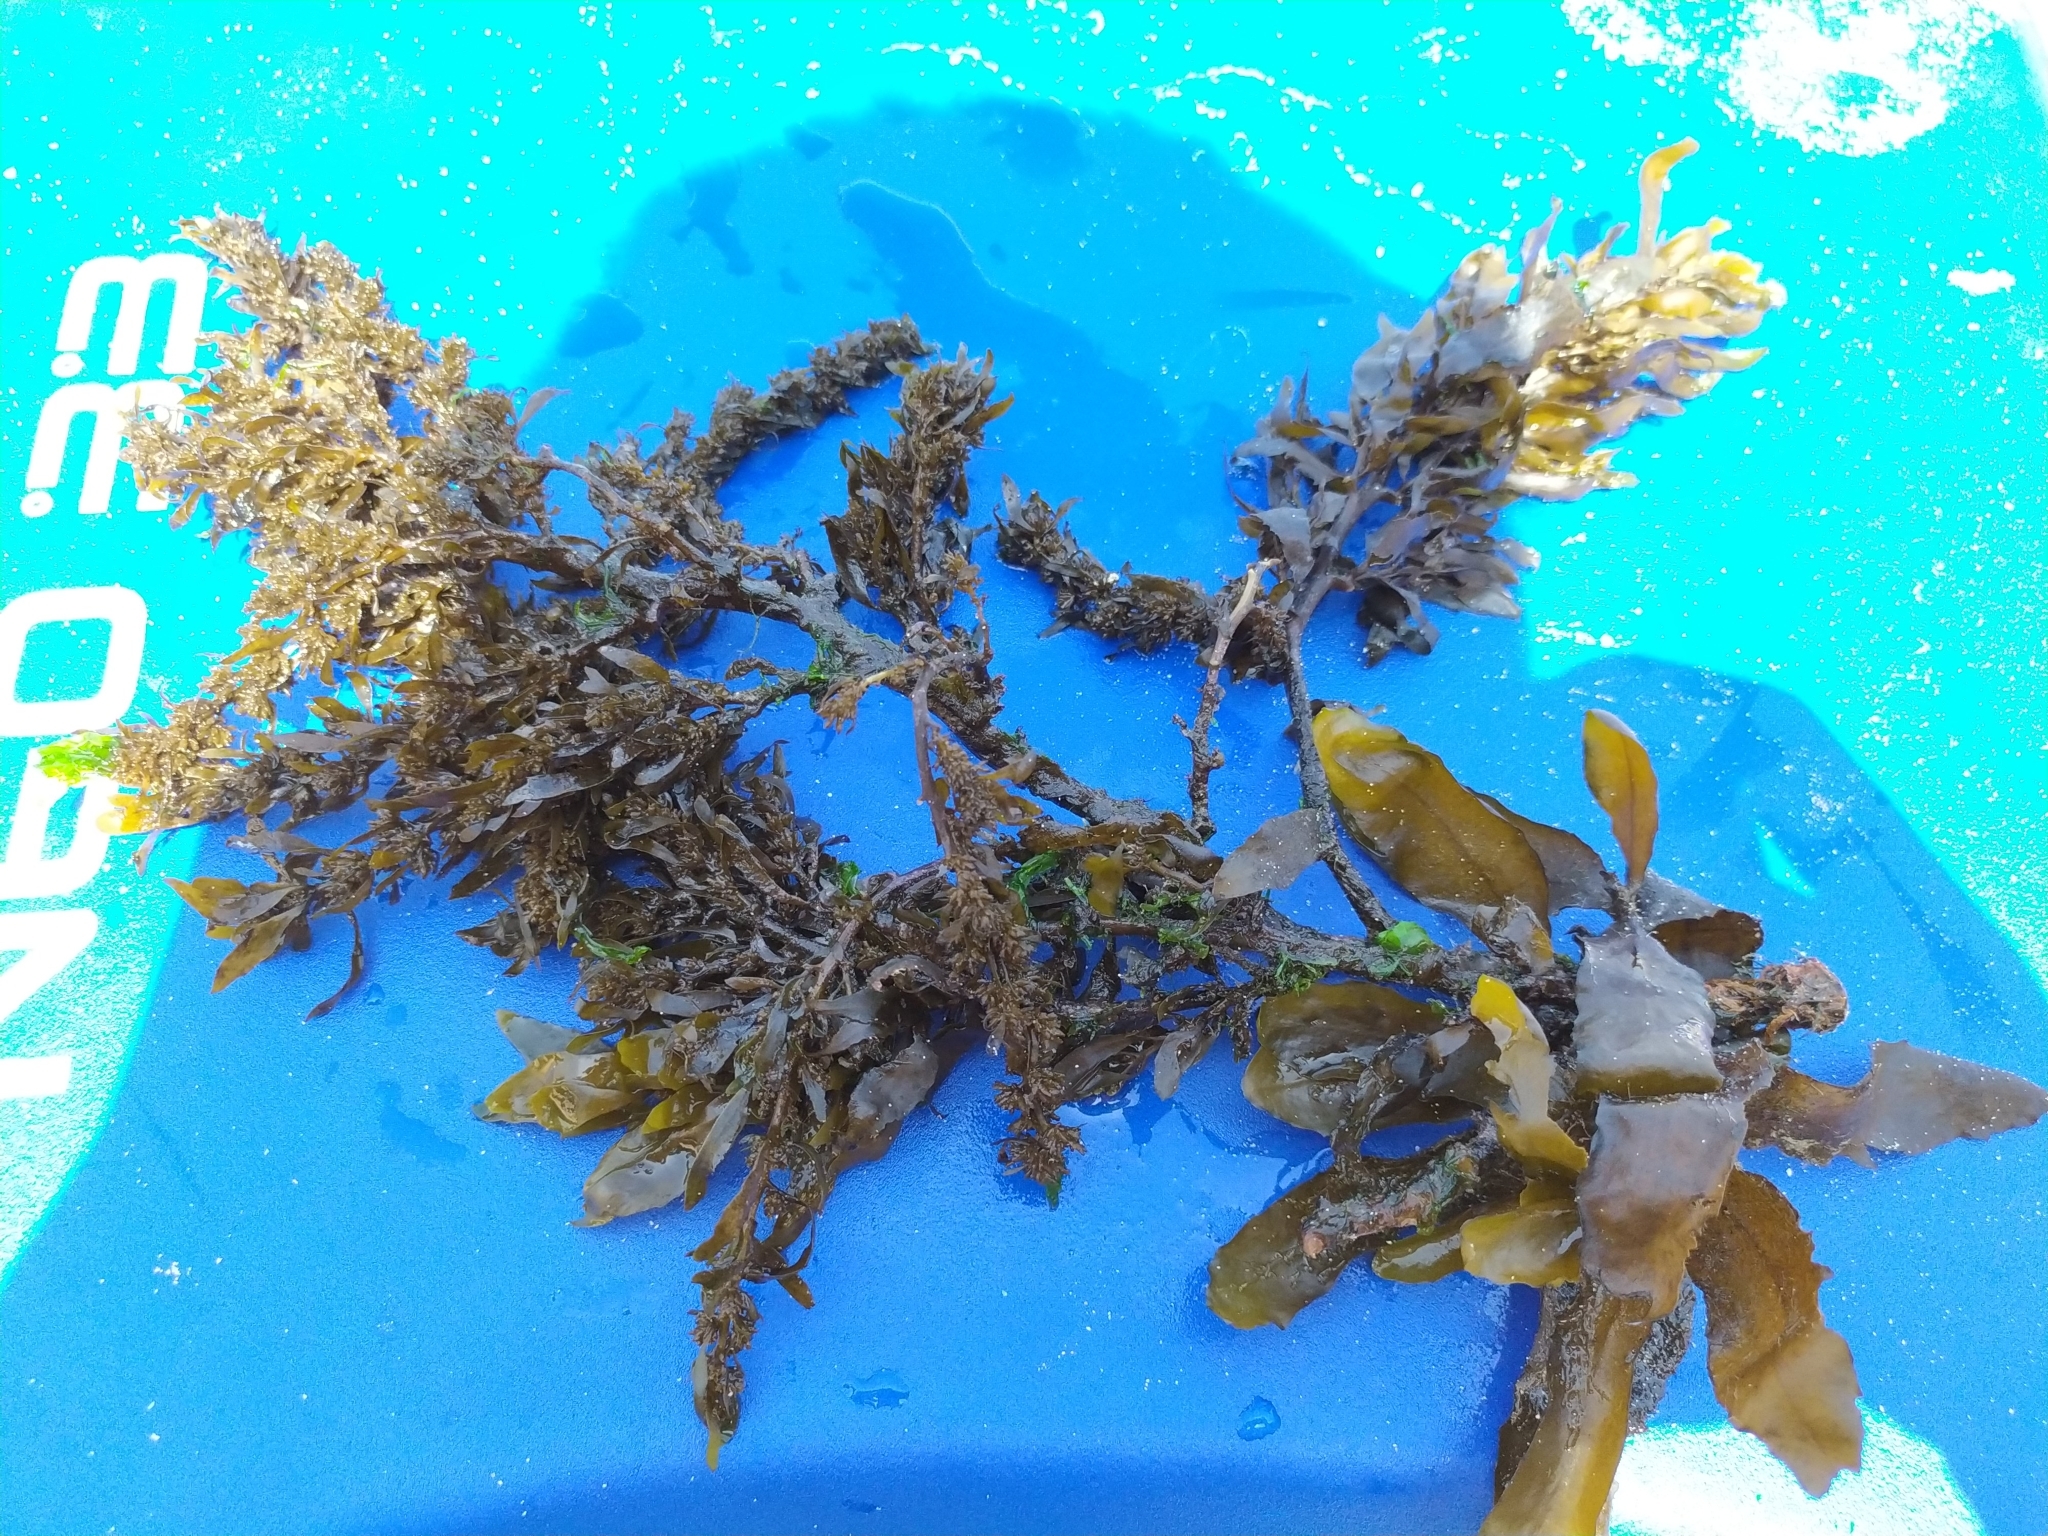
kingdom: Chromista
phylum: Ochrophyta
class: Phaeophyceae
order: Fucales
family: Sargassaceae
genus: Sargassum
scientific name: Sargassum sinclairii
